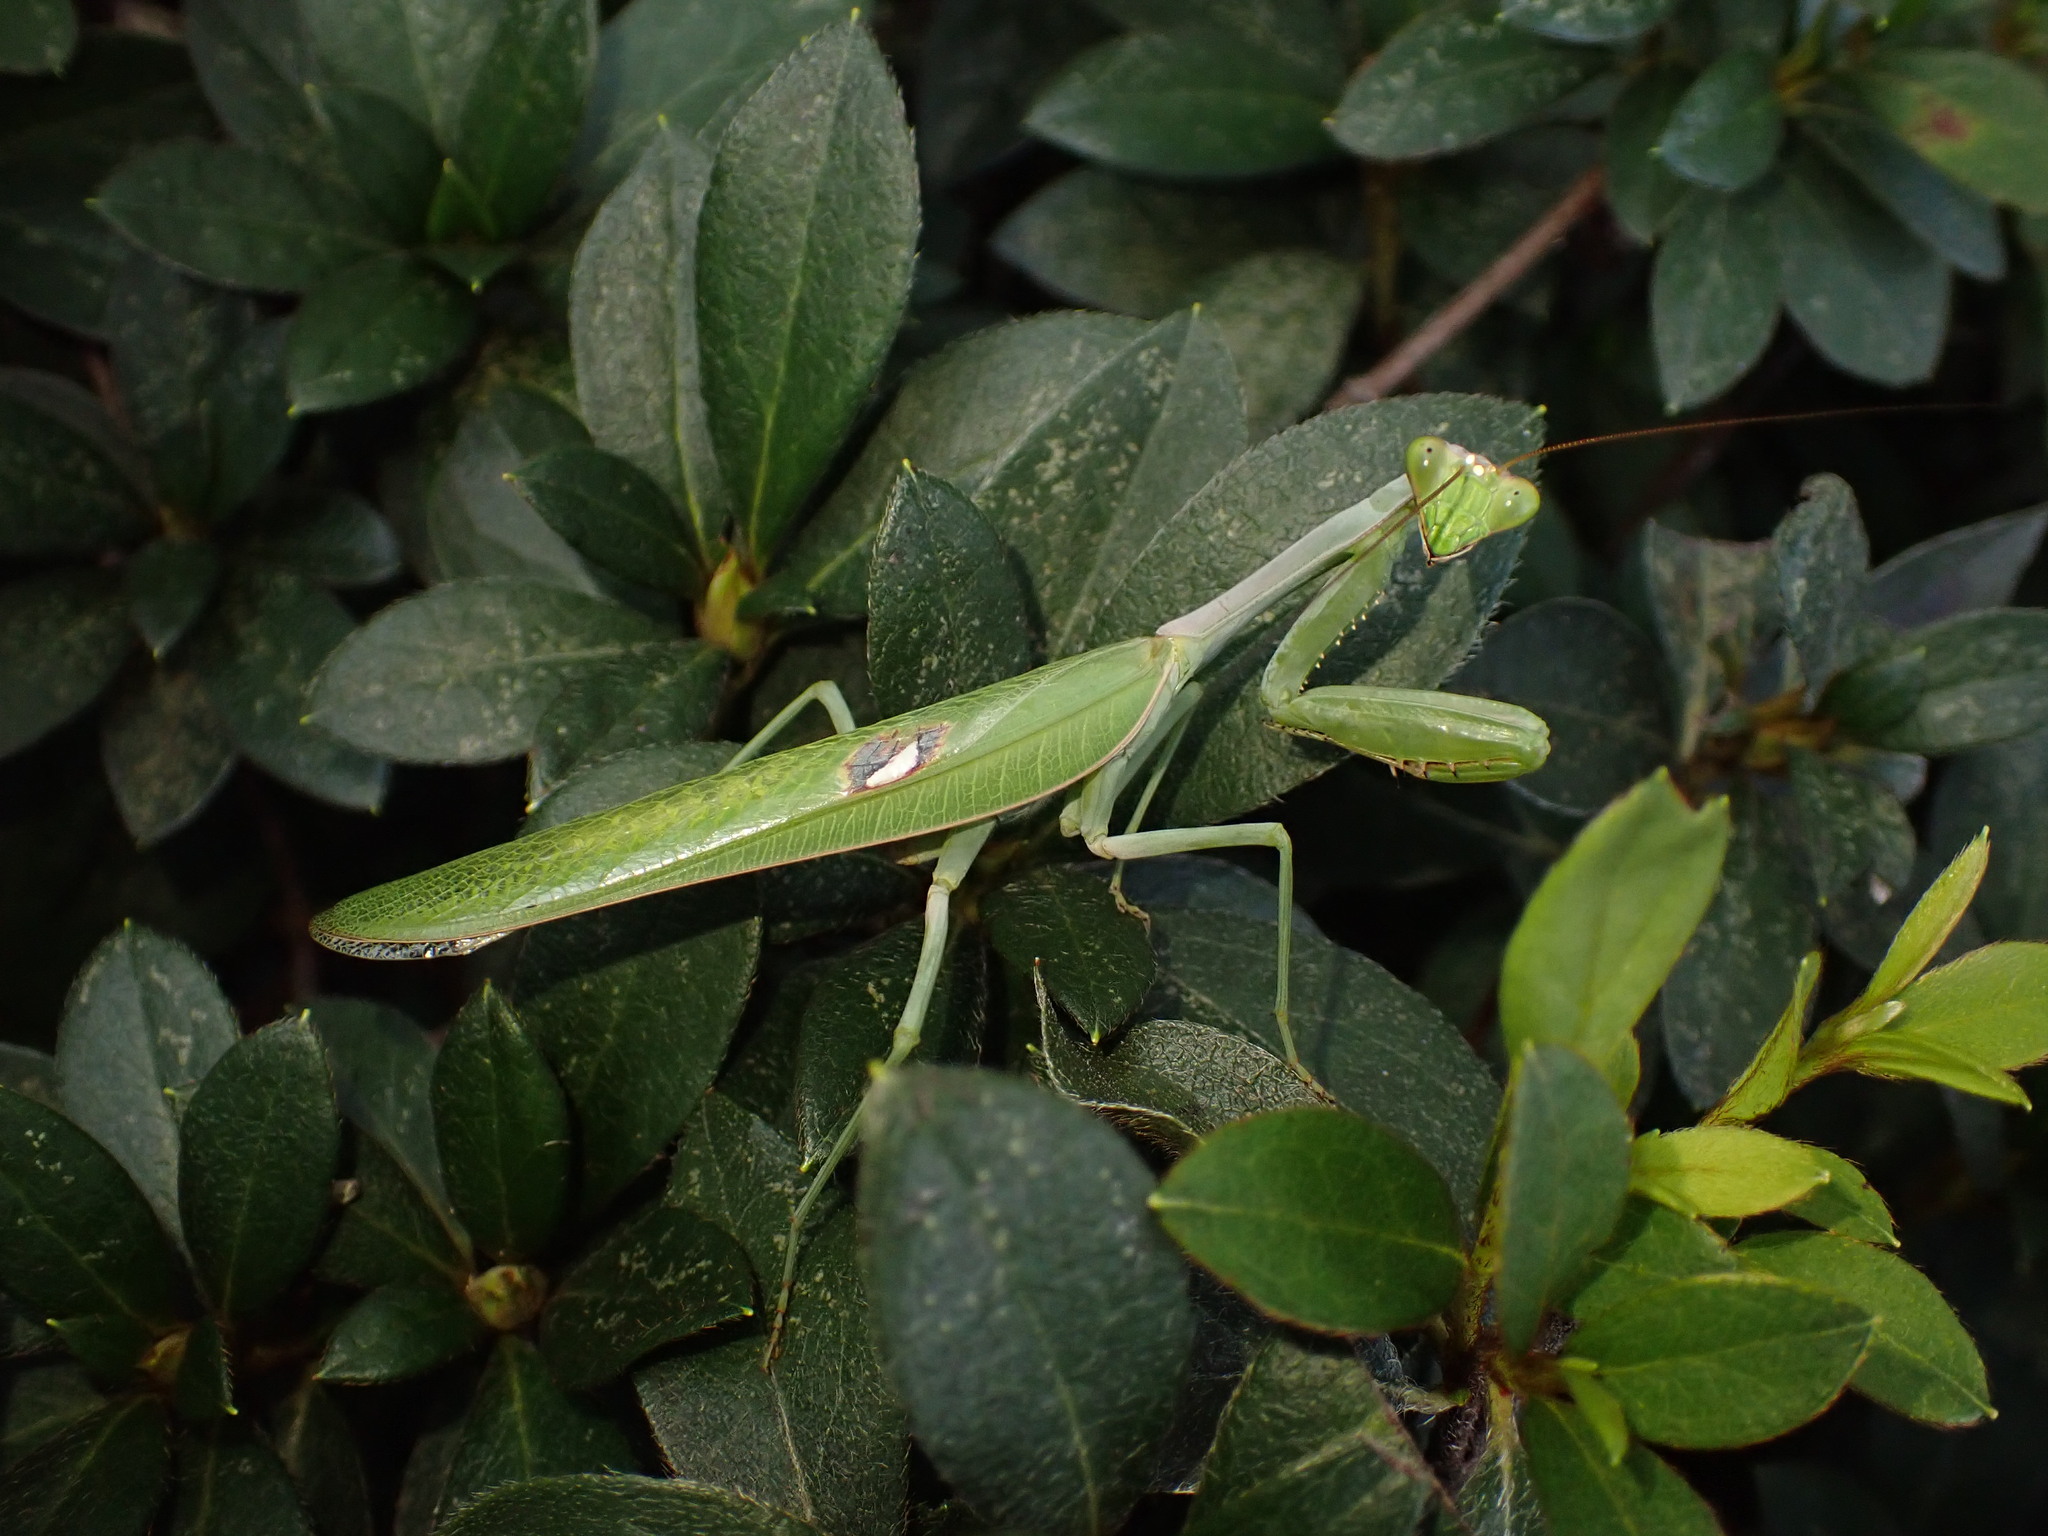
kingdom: Animalia
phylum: Arthropoda
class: Insecta
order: Mantodea
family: Mantidae
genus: Stagmatoptera
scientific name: Stagmatoptera reimoseri
